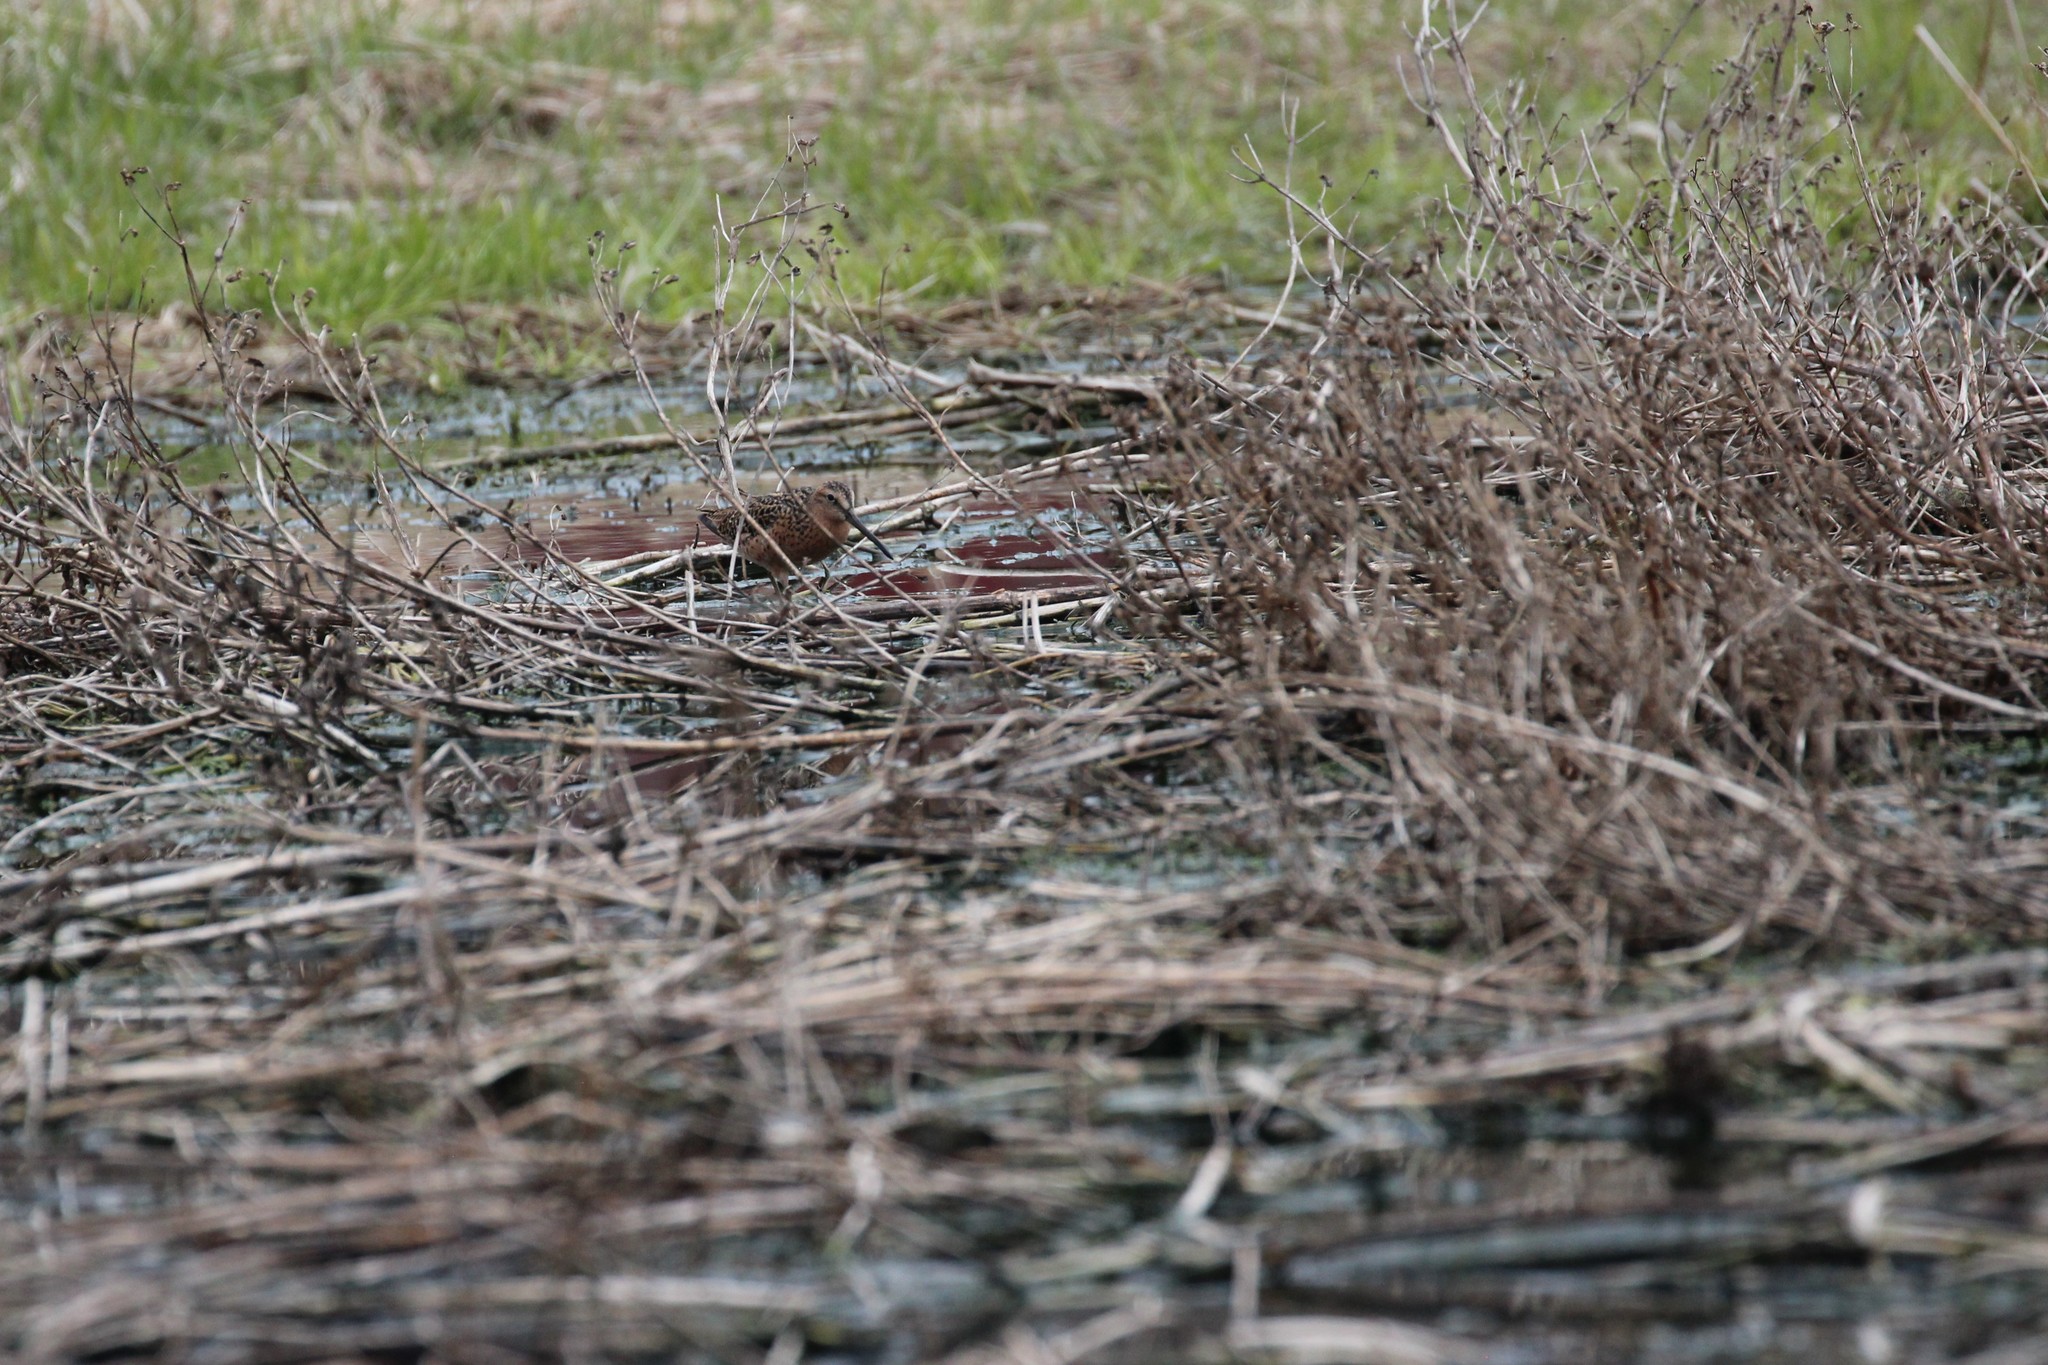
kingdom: Animalia
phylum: Chordata
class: Aves
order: Charadriiformes
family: Scolopacidae
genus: Limnodromus
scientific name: Limnodromus griseus
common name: Short-billed dowitcher
